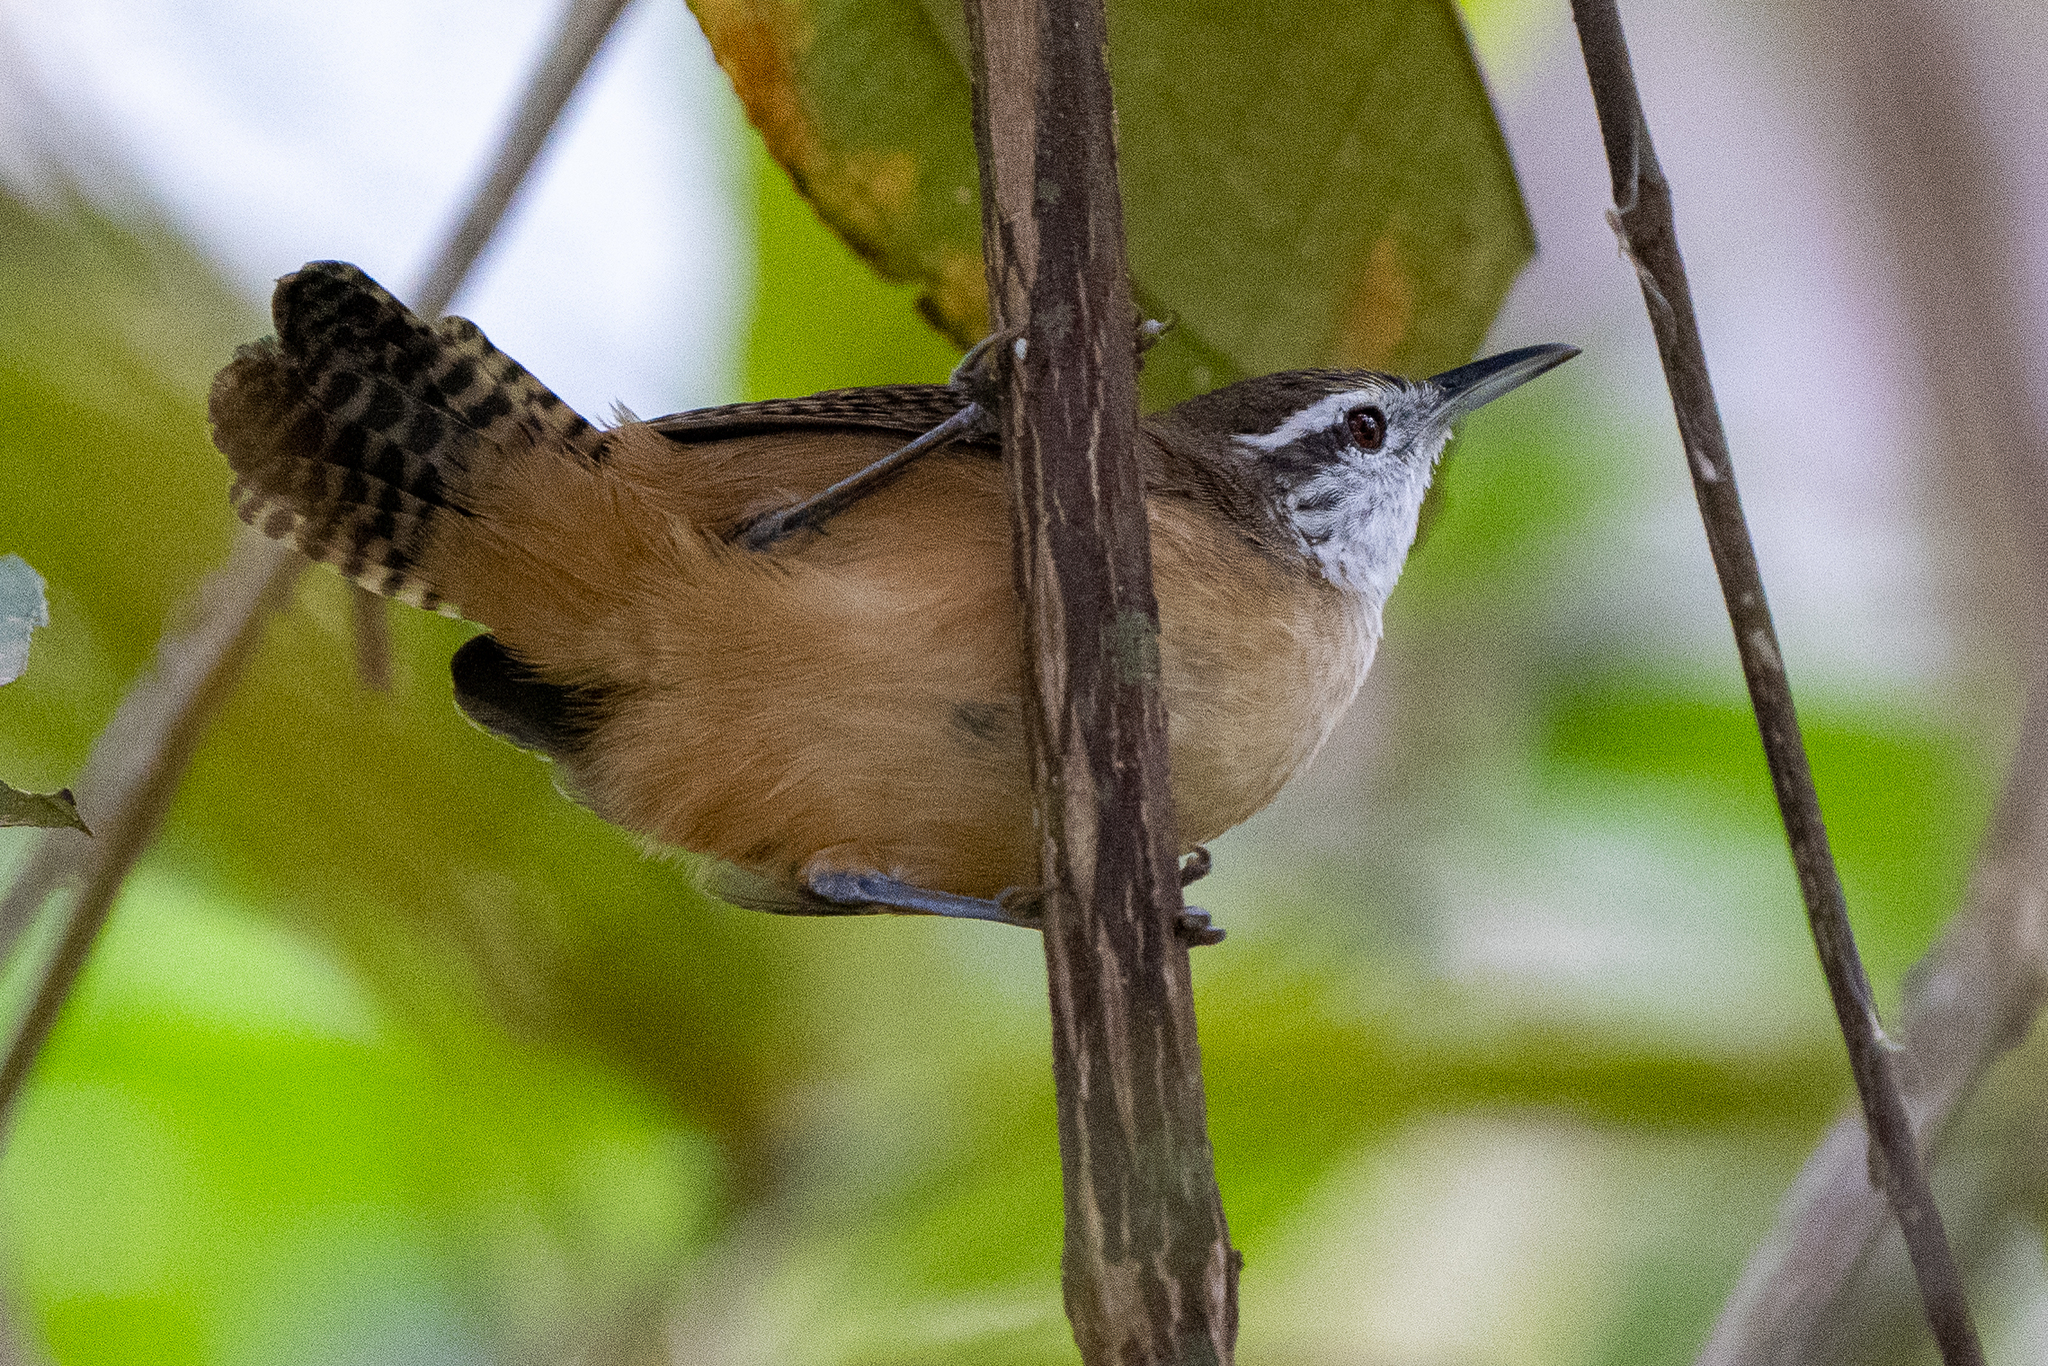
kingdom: Animalia
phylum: Chordata
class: Aves
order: Passeriformes
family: Troglodytidae
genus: Cantorchilus
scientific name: Cantorchilus leucotis
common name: Buff-breasted wren
